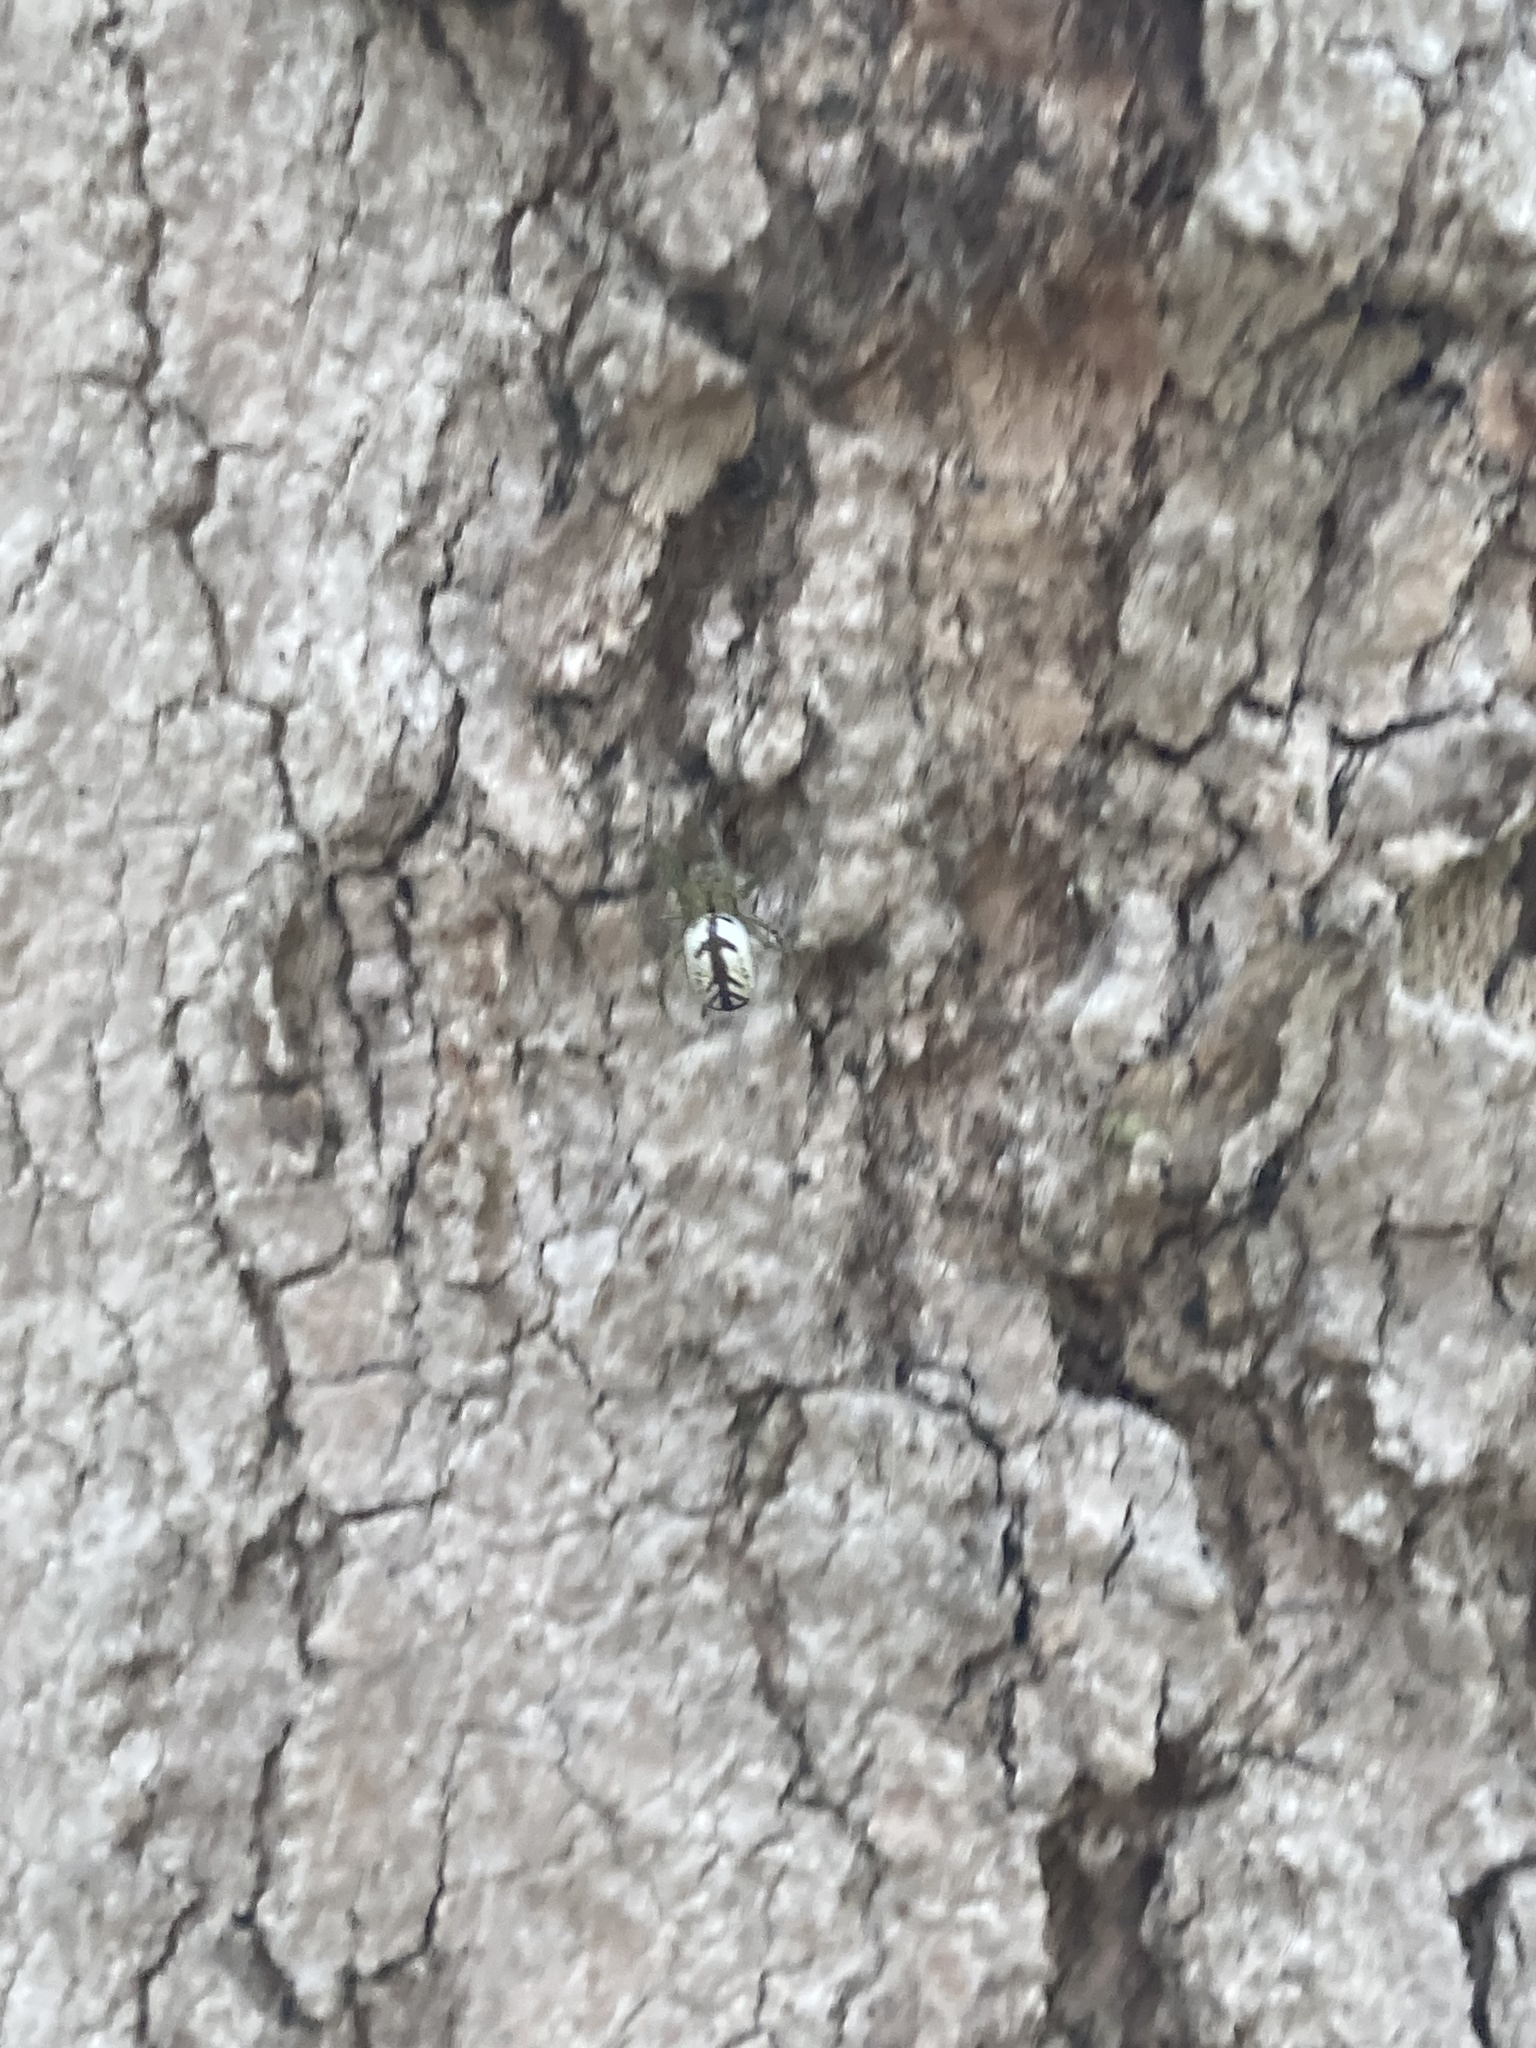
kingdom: Animalia
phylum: Arthropoda
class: Arachnida
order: Araneae
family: Tetragnathidae
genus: Leucauge
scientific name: Leucauge venusta
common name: Longjawed orb weavers
